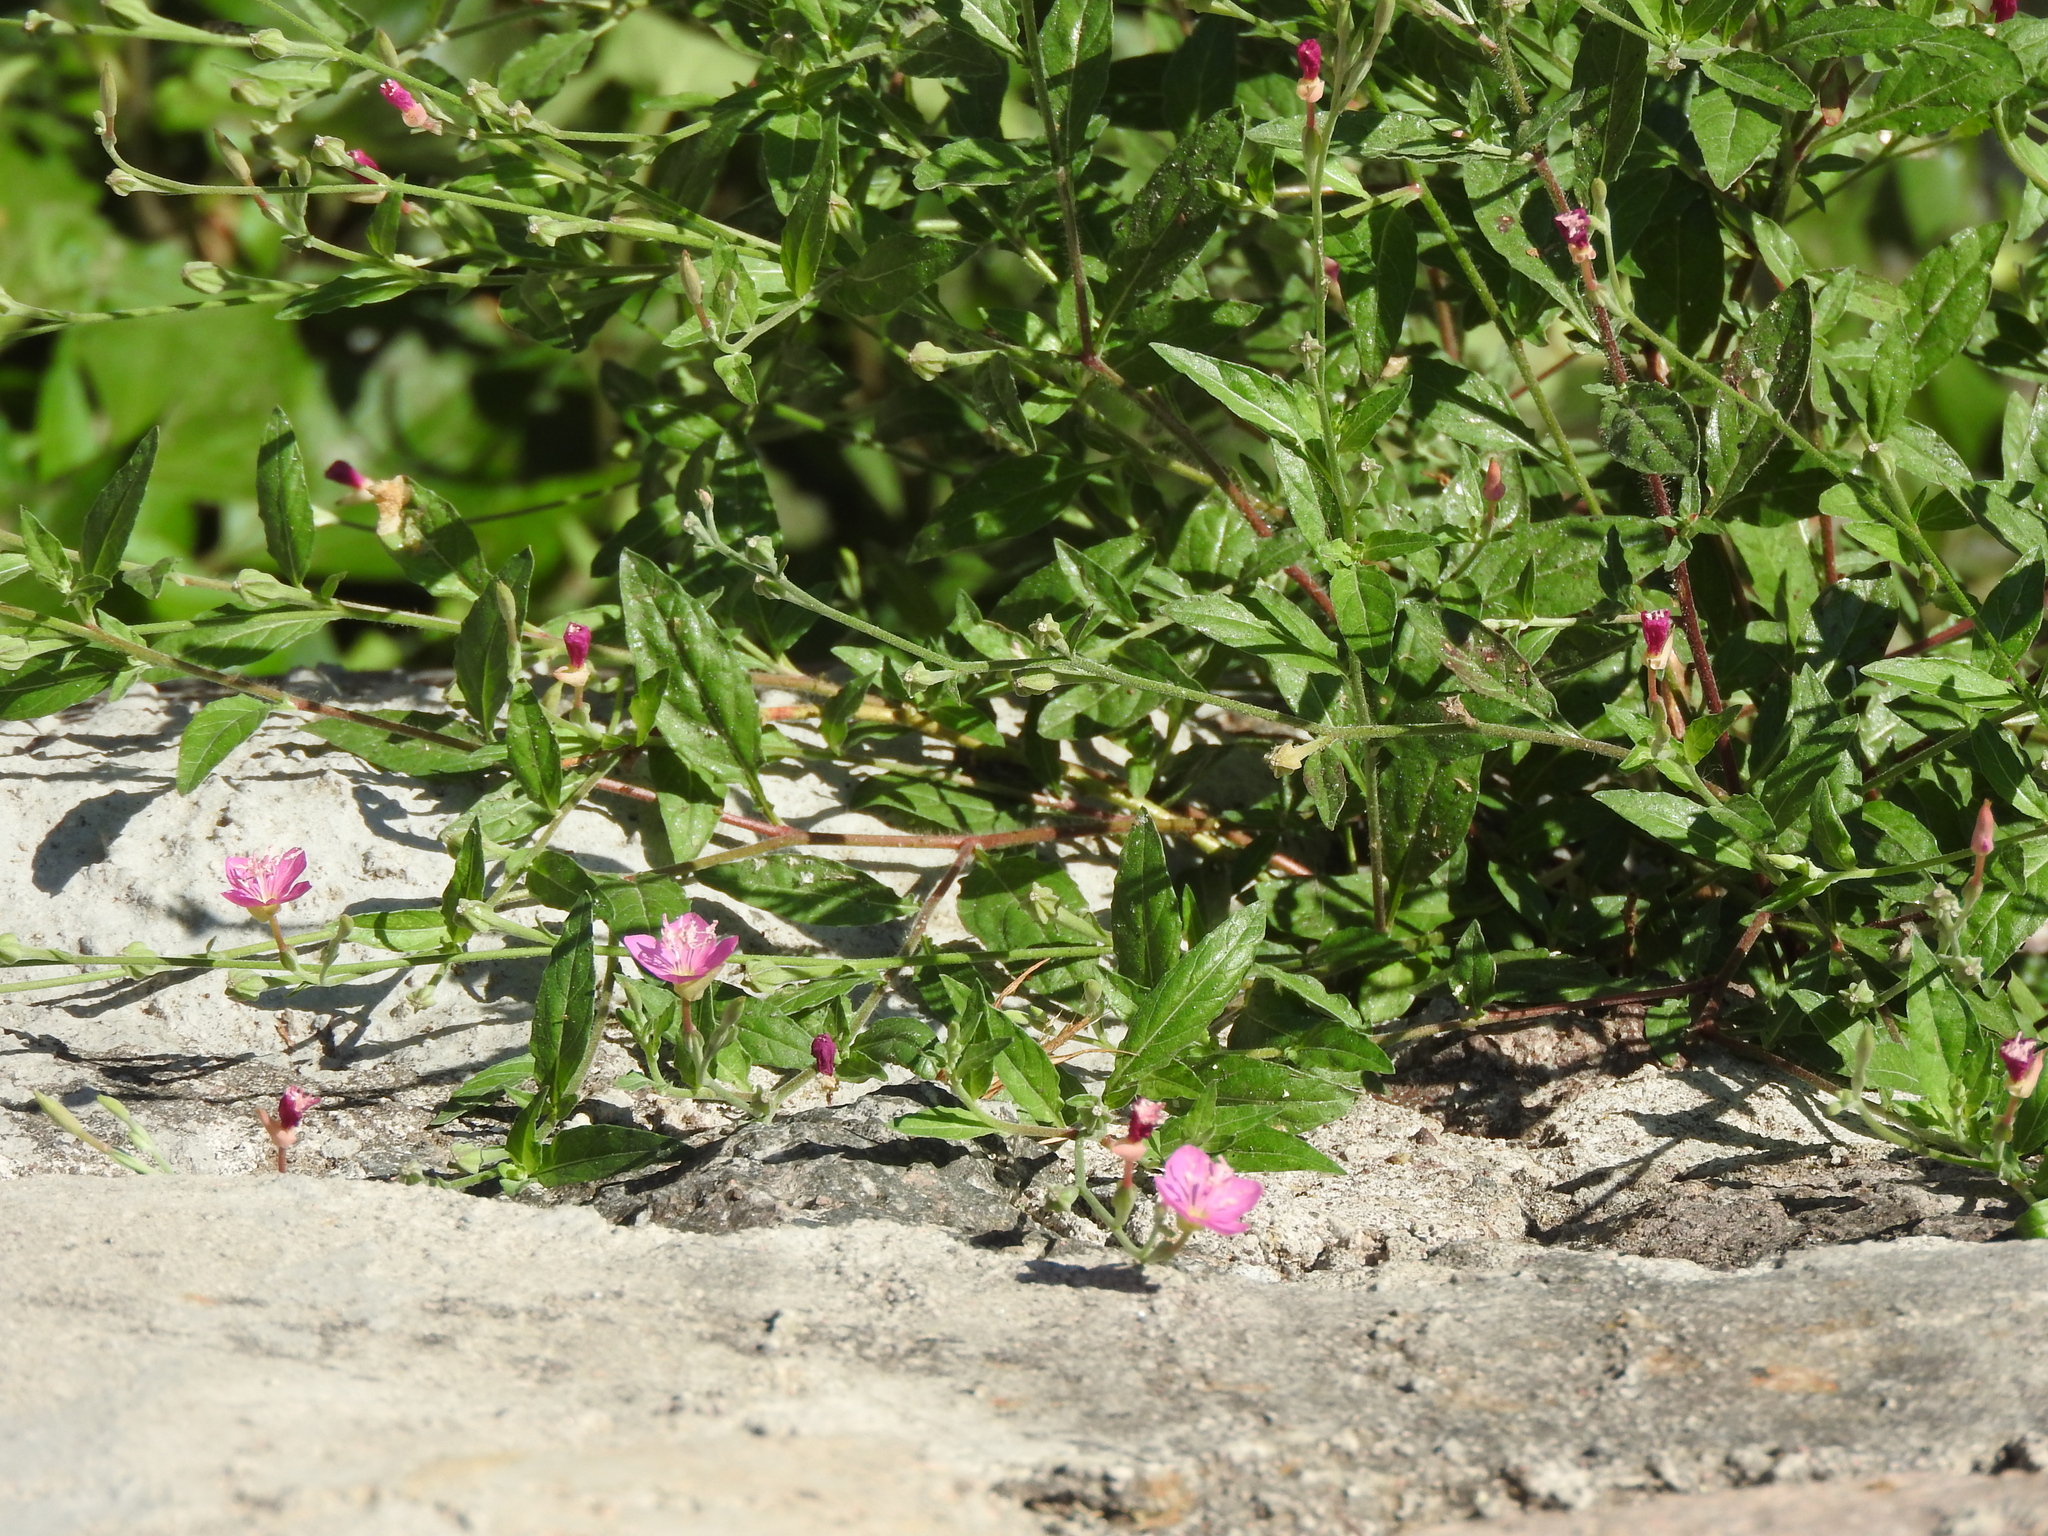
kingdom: Plantae
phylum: Tracheophyta
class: Magnoliopsida
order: Myrtales
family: Onagraceae
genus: Oenothera
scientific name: Oenothera rosea
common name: Rosy evening-primrose
